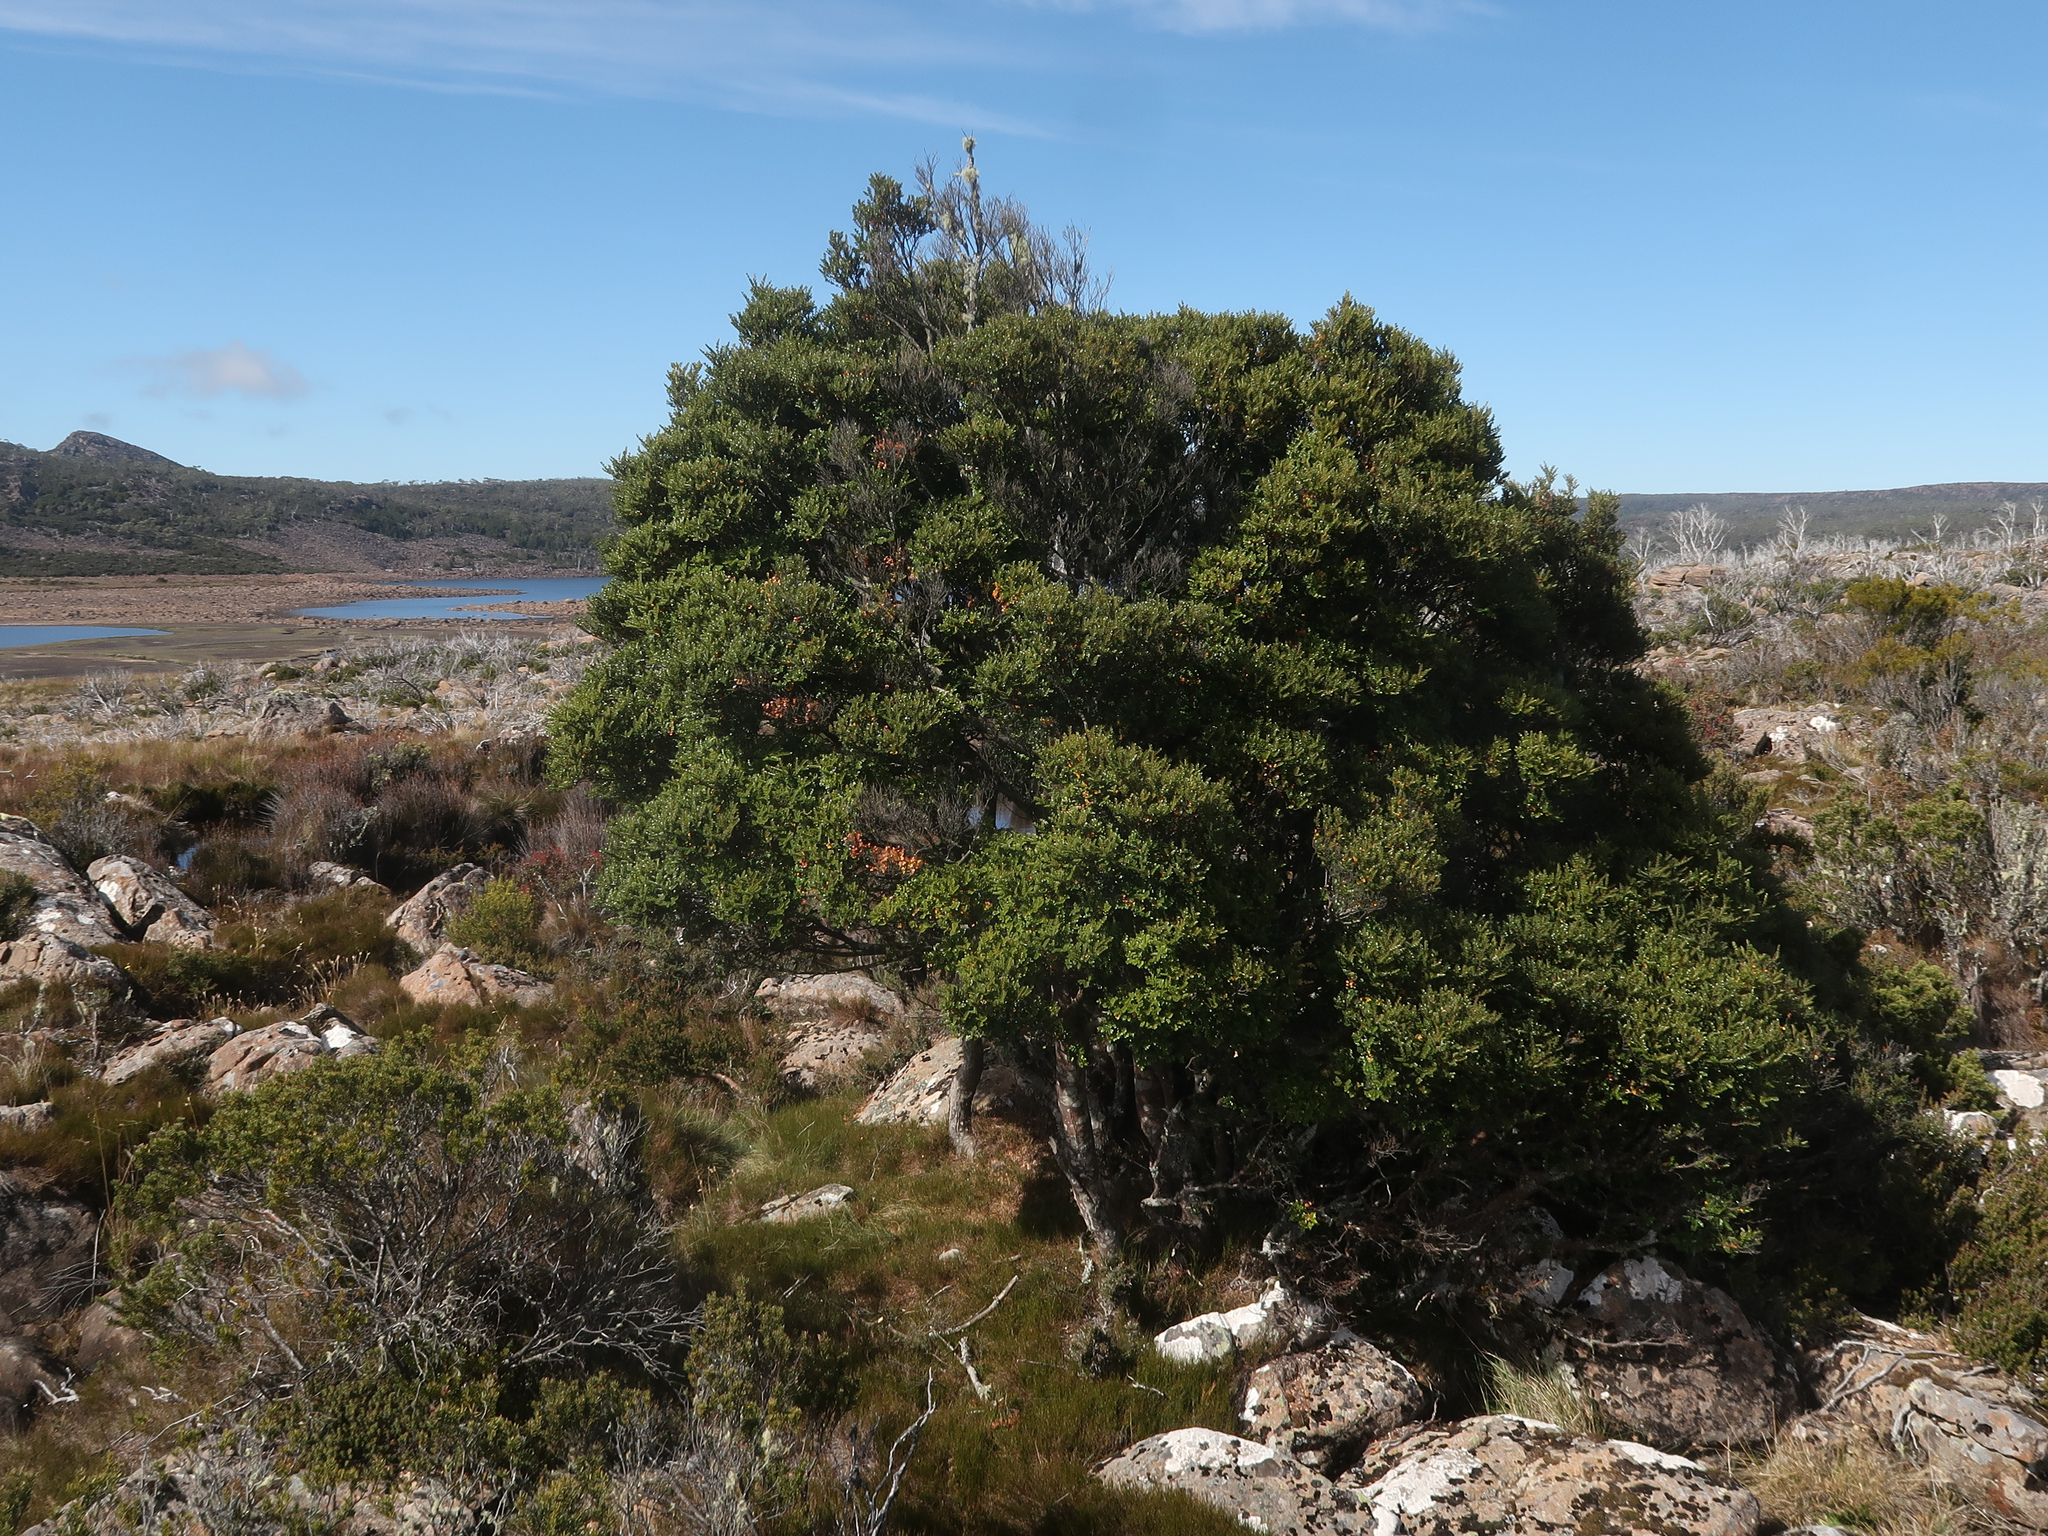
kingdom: Plantae
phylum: Tracheophyta
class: Magnoliopsida
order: Fagales
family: Nothofagaceae
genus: Nothofagus
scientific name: Nothofagus cunninghamii
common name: Myrtle beech
